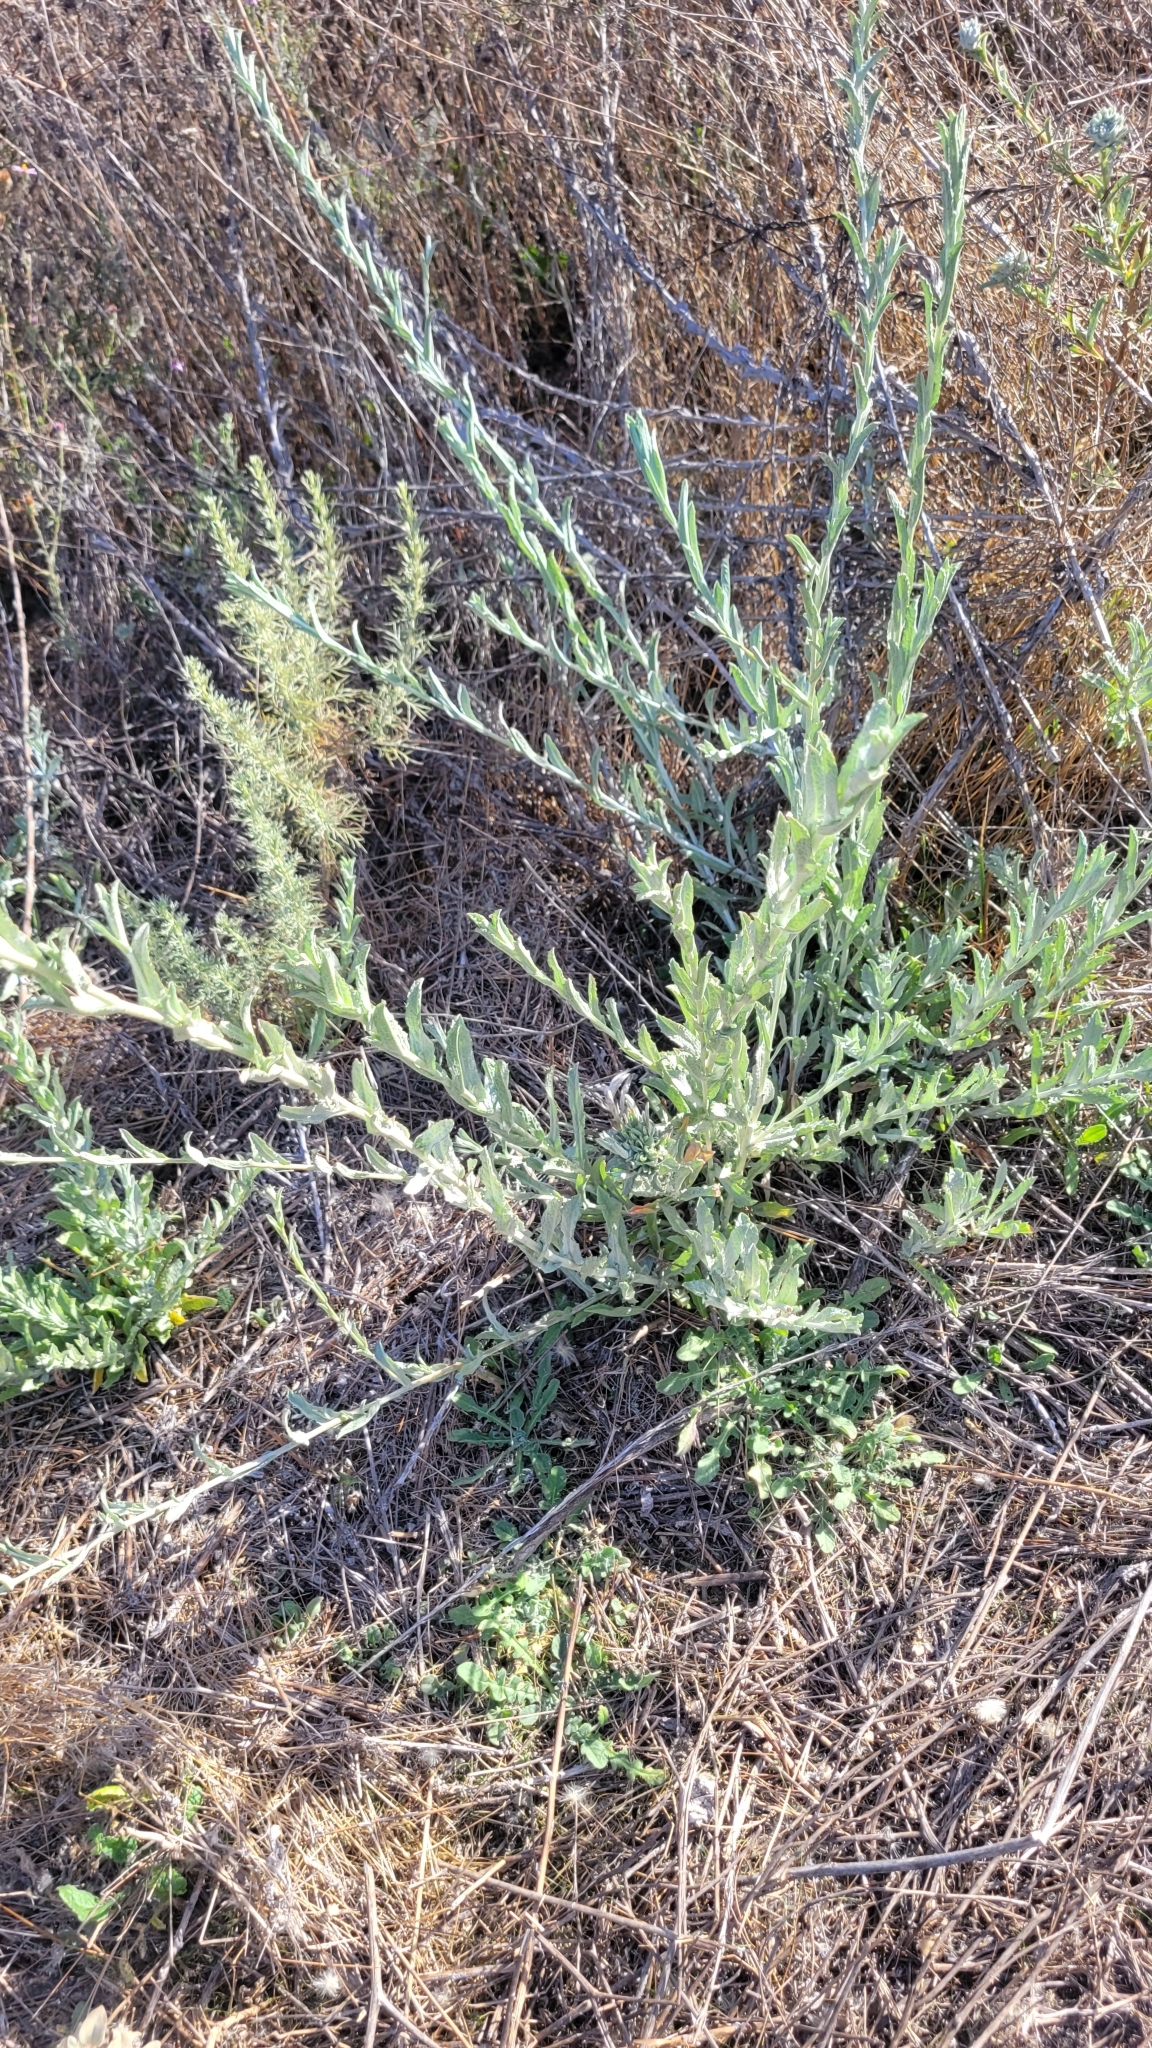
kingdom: Plantae
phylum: Tracheophyta
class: Magnoliopsida
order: Asterales
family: Asteraceae
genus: Corethrogyne
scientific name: Corethrogyne filaginifolia
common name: Sand-aster
